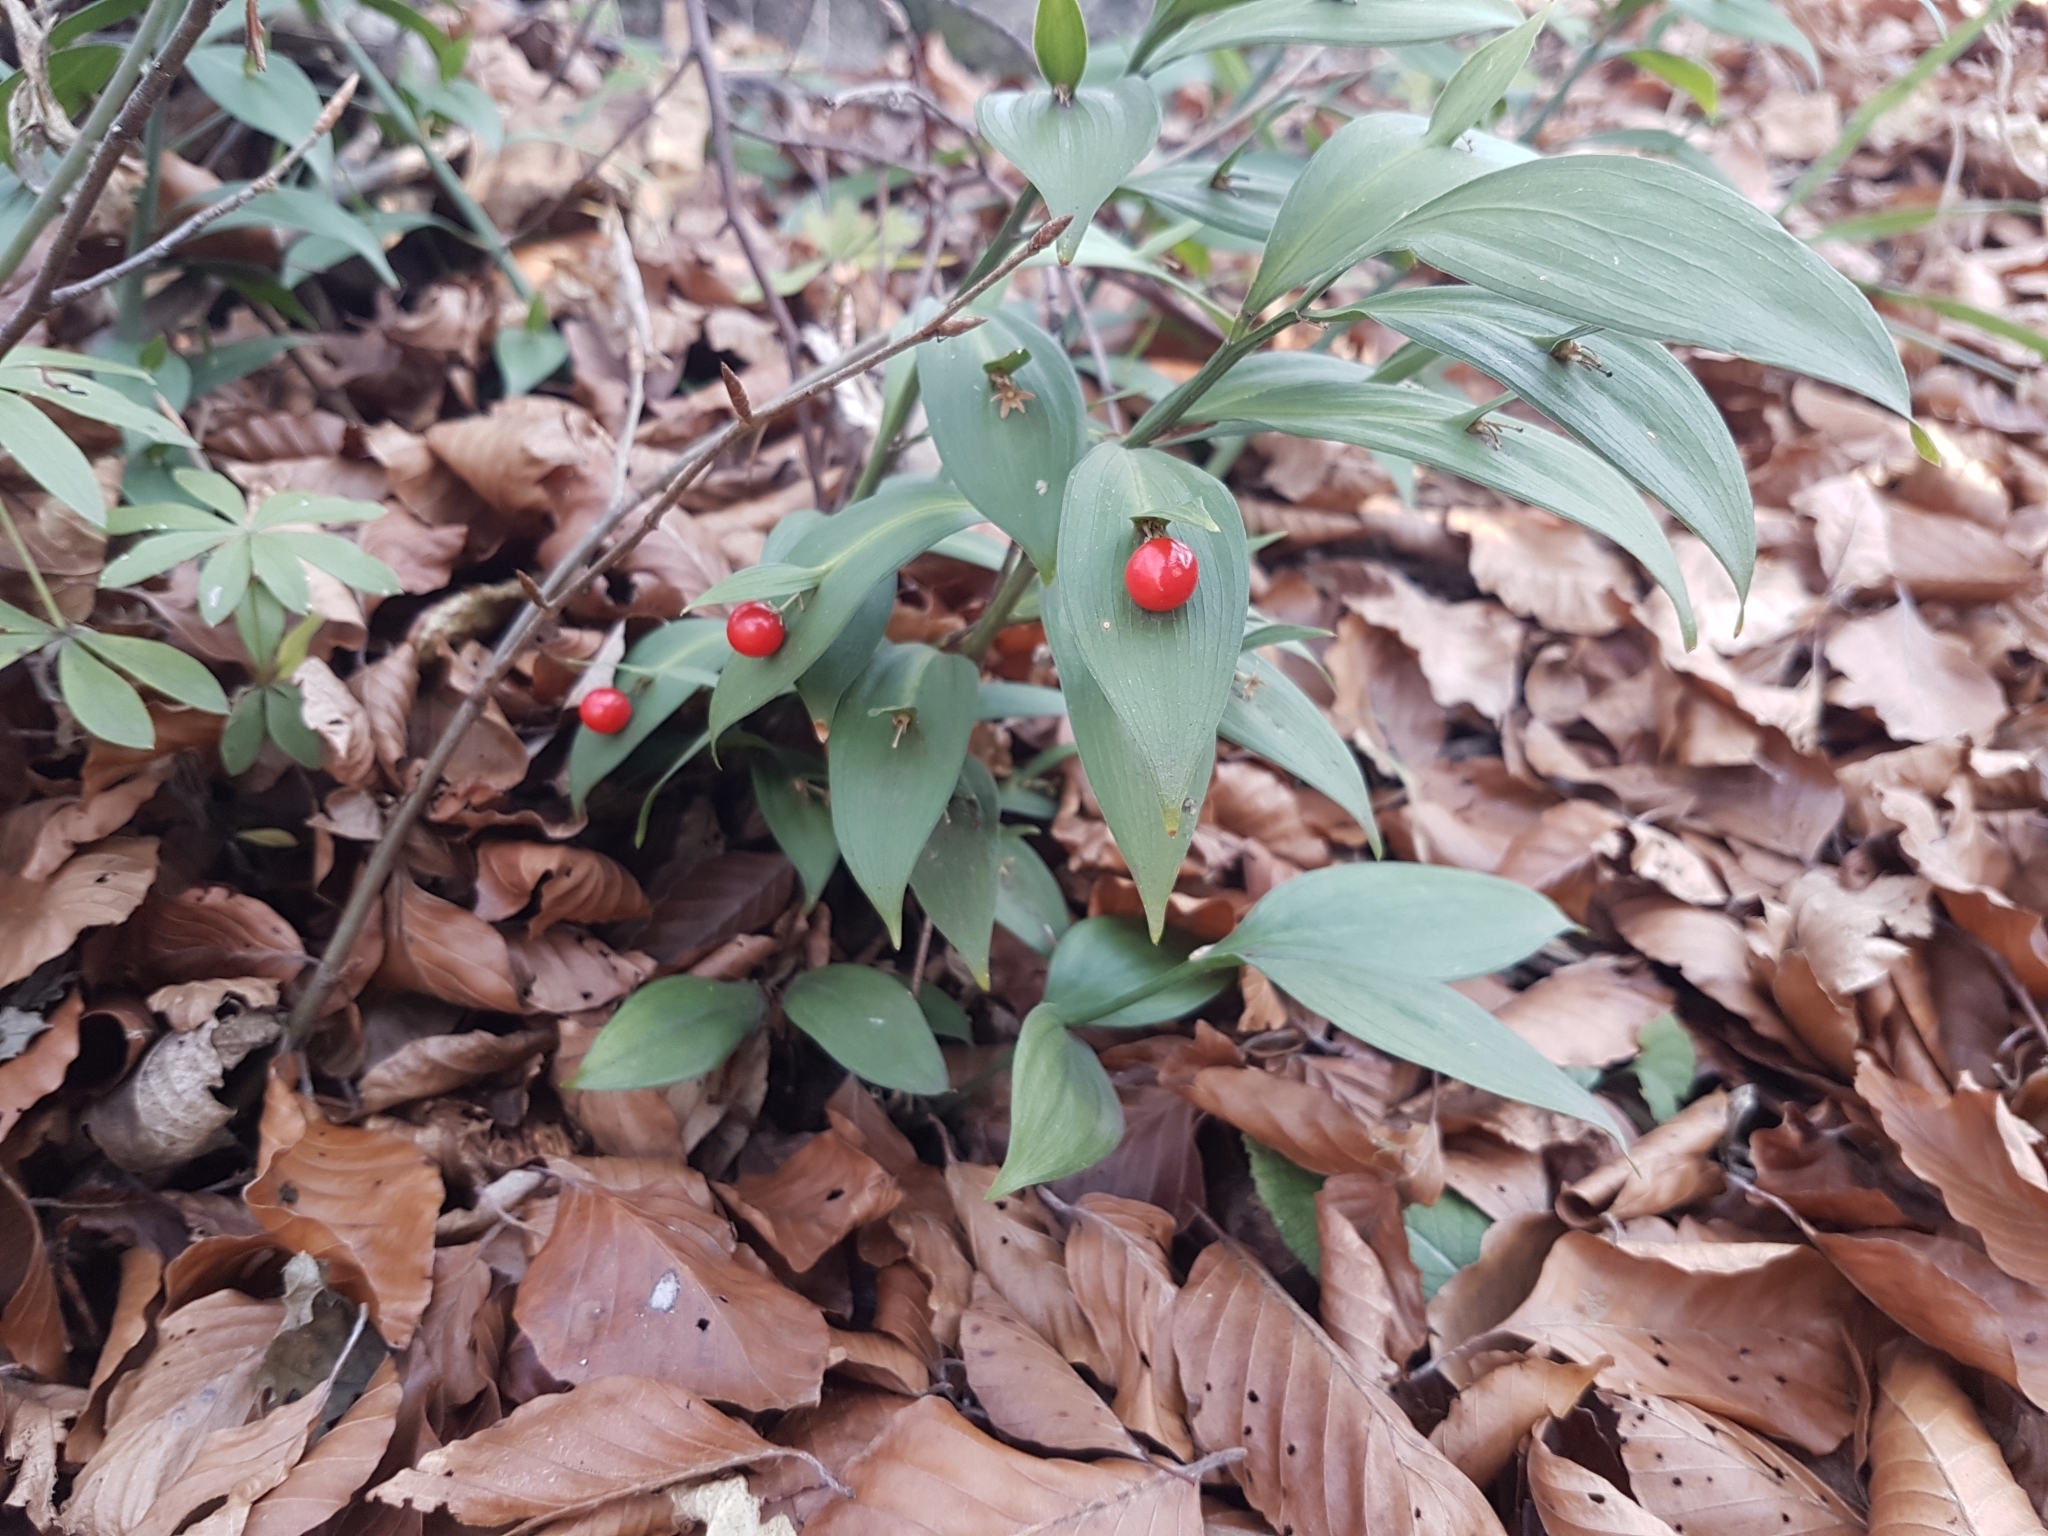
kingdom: Plantae
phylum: Tracheophyta
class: Liliopsida
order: Asparagales
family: Asparagaceae
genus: Ruscus
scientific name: Ruscus hypoglossum
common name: Spineless butcher's-broom
